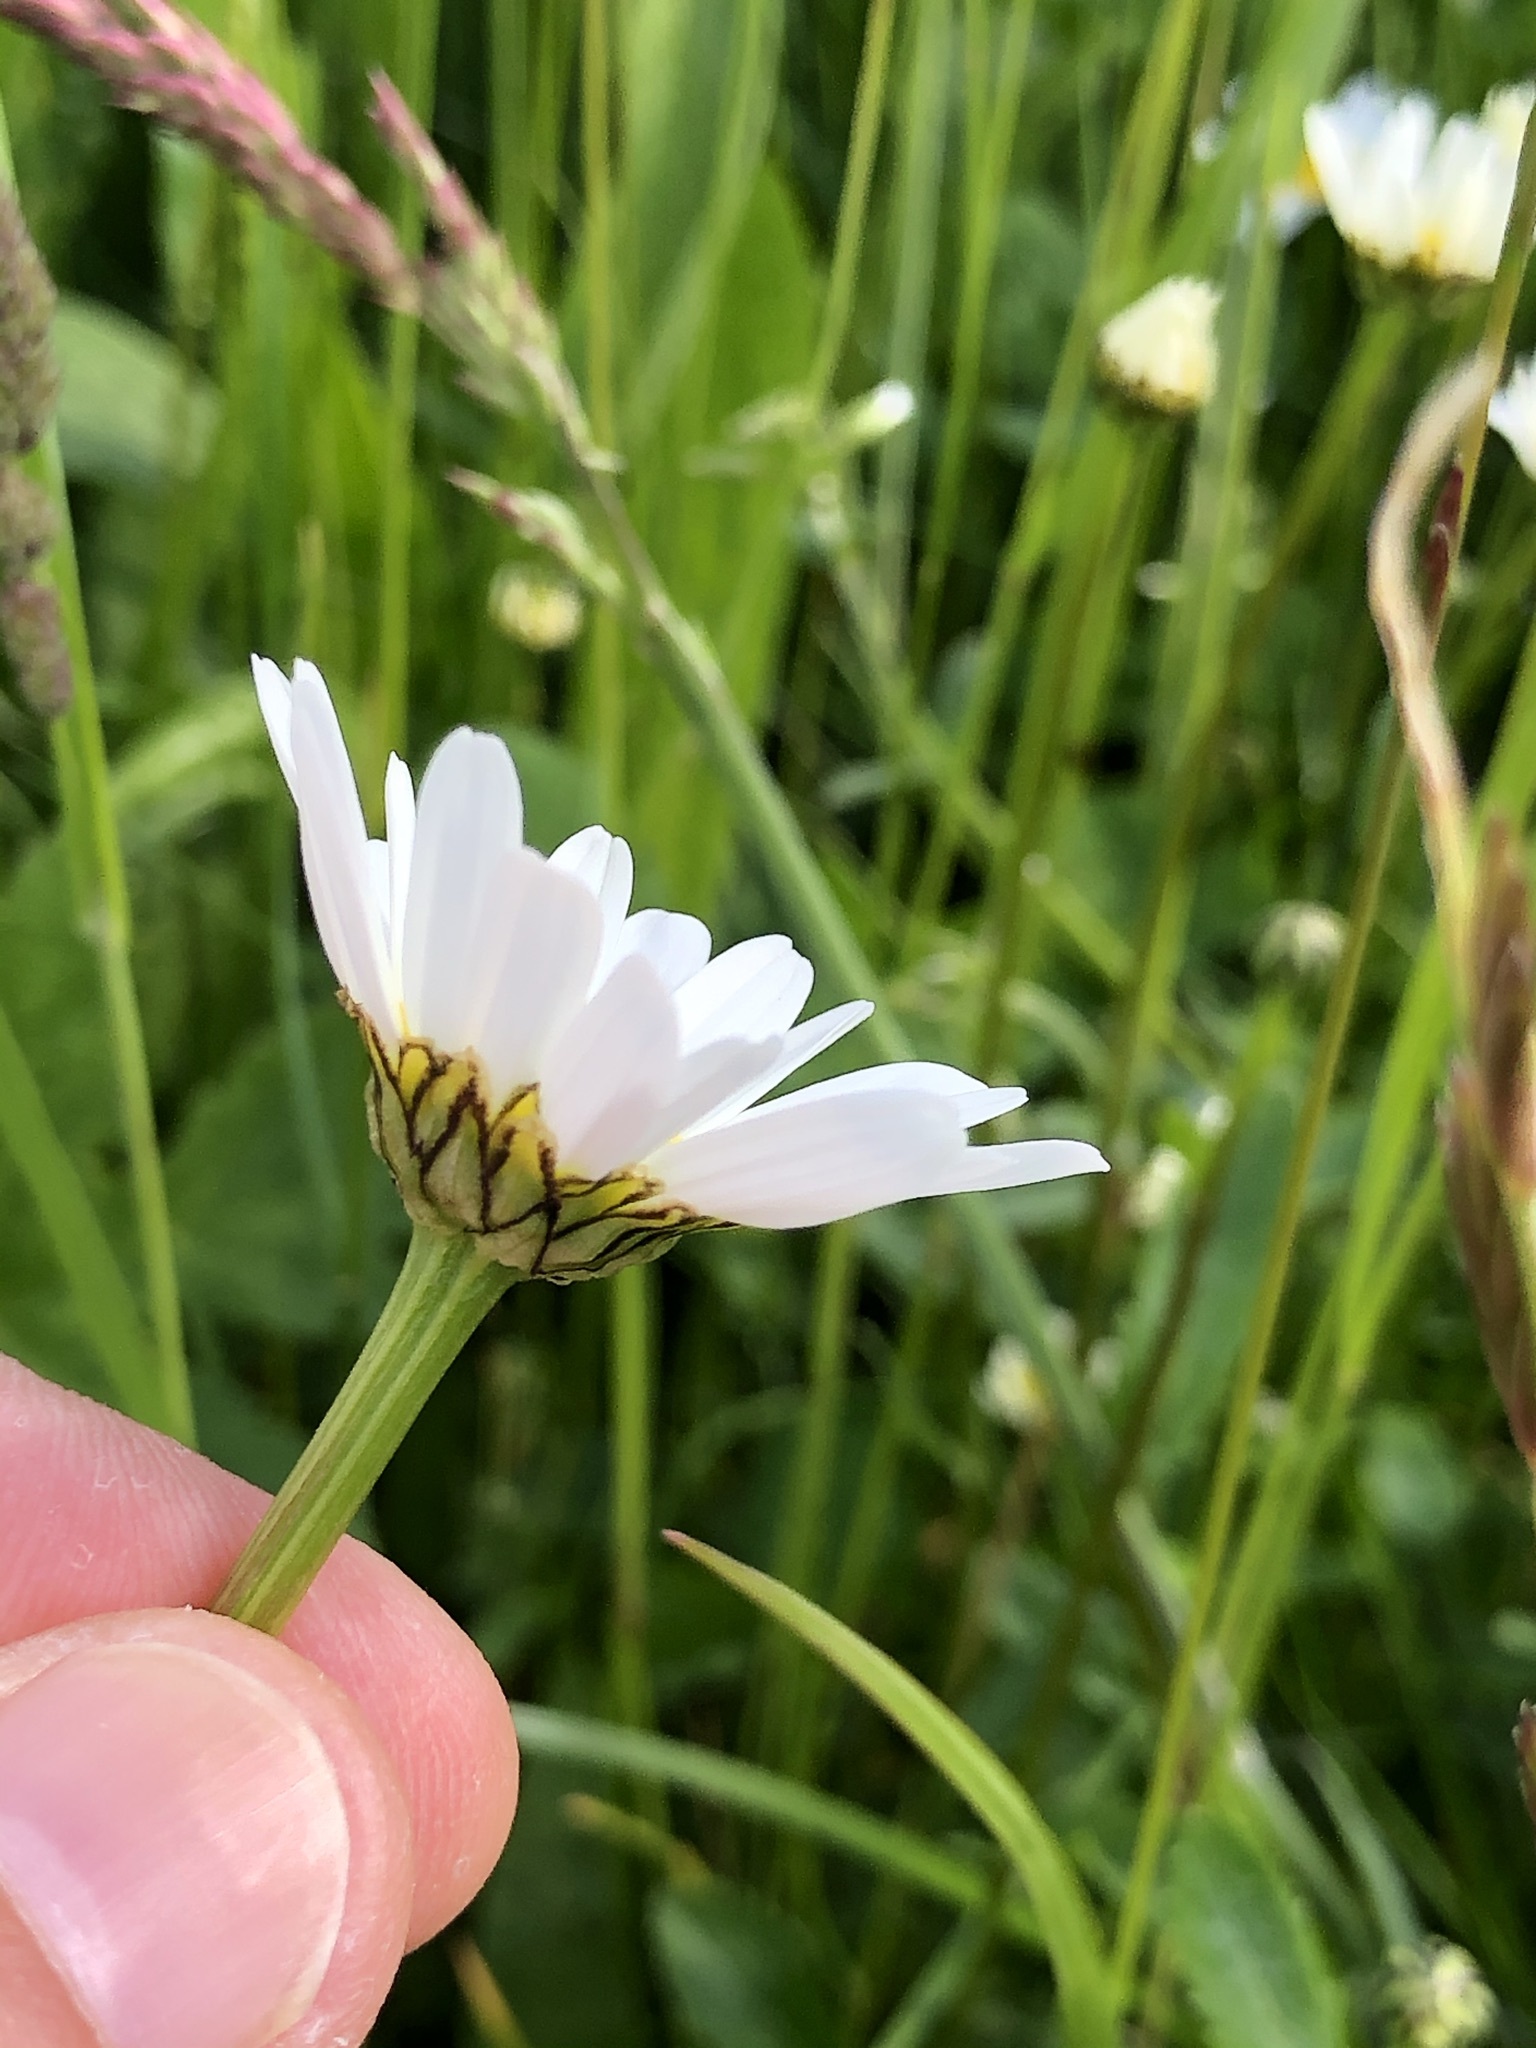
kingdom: Plantae
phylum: Tracheophyta
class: Magnoliopsida
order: Asterales
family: Asteraceae
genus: Leucanthemum
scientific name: Leucanthemum vulgare
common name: Oxeye daisy
